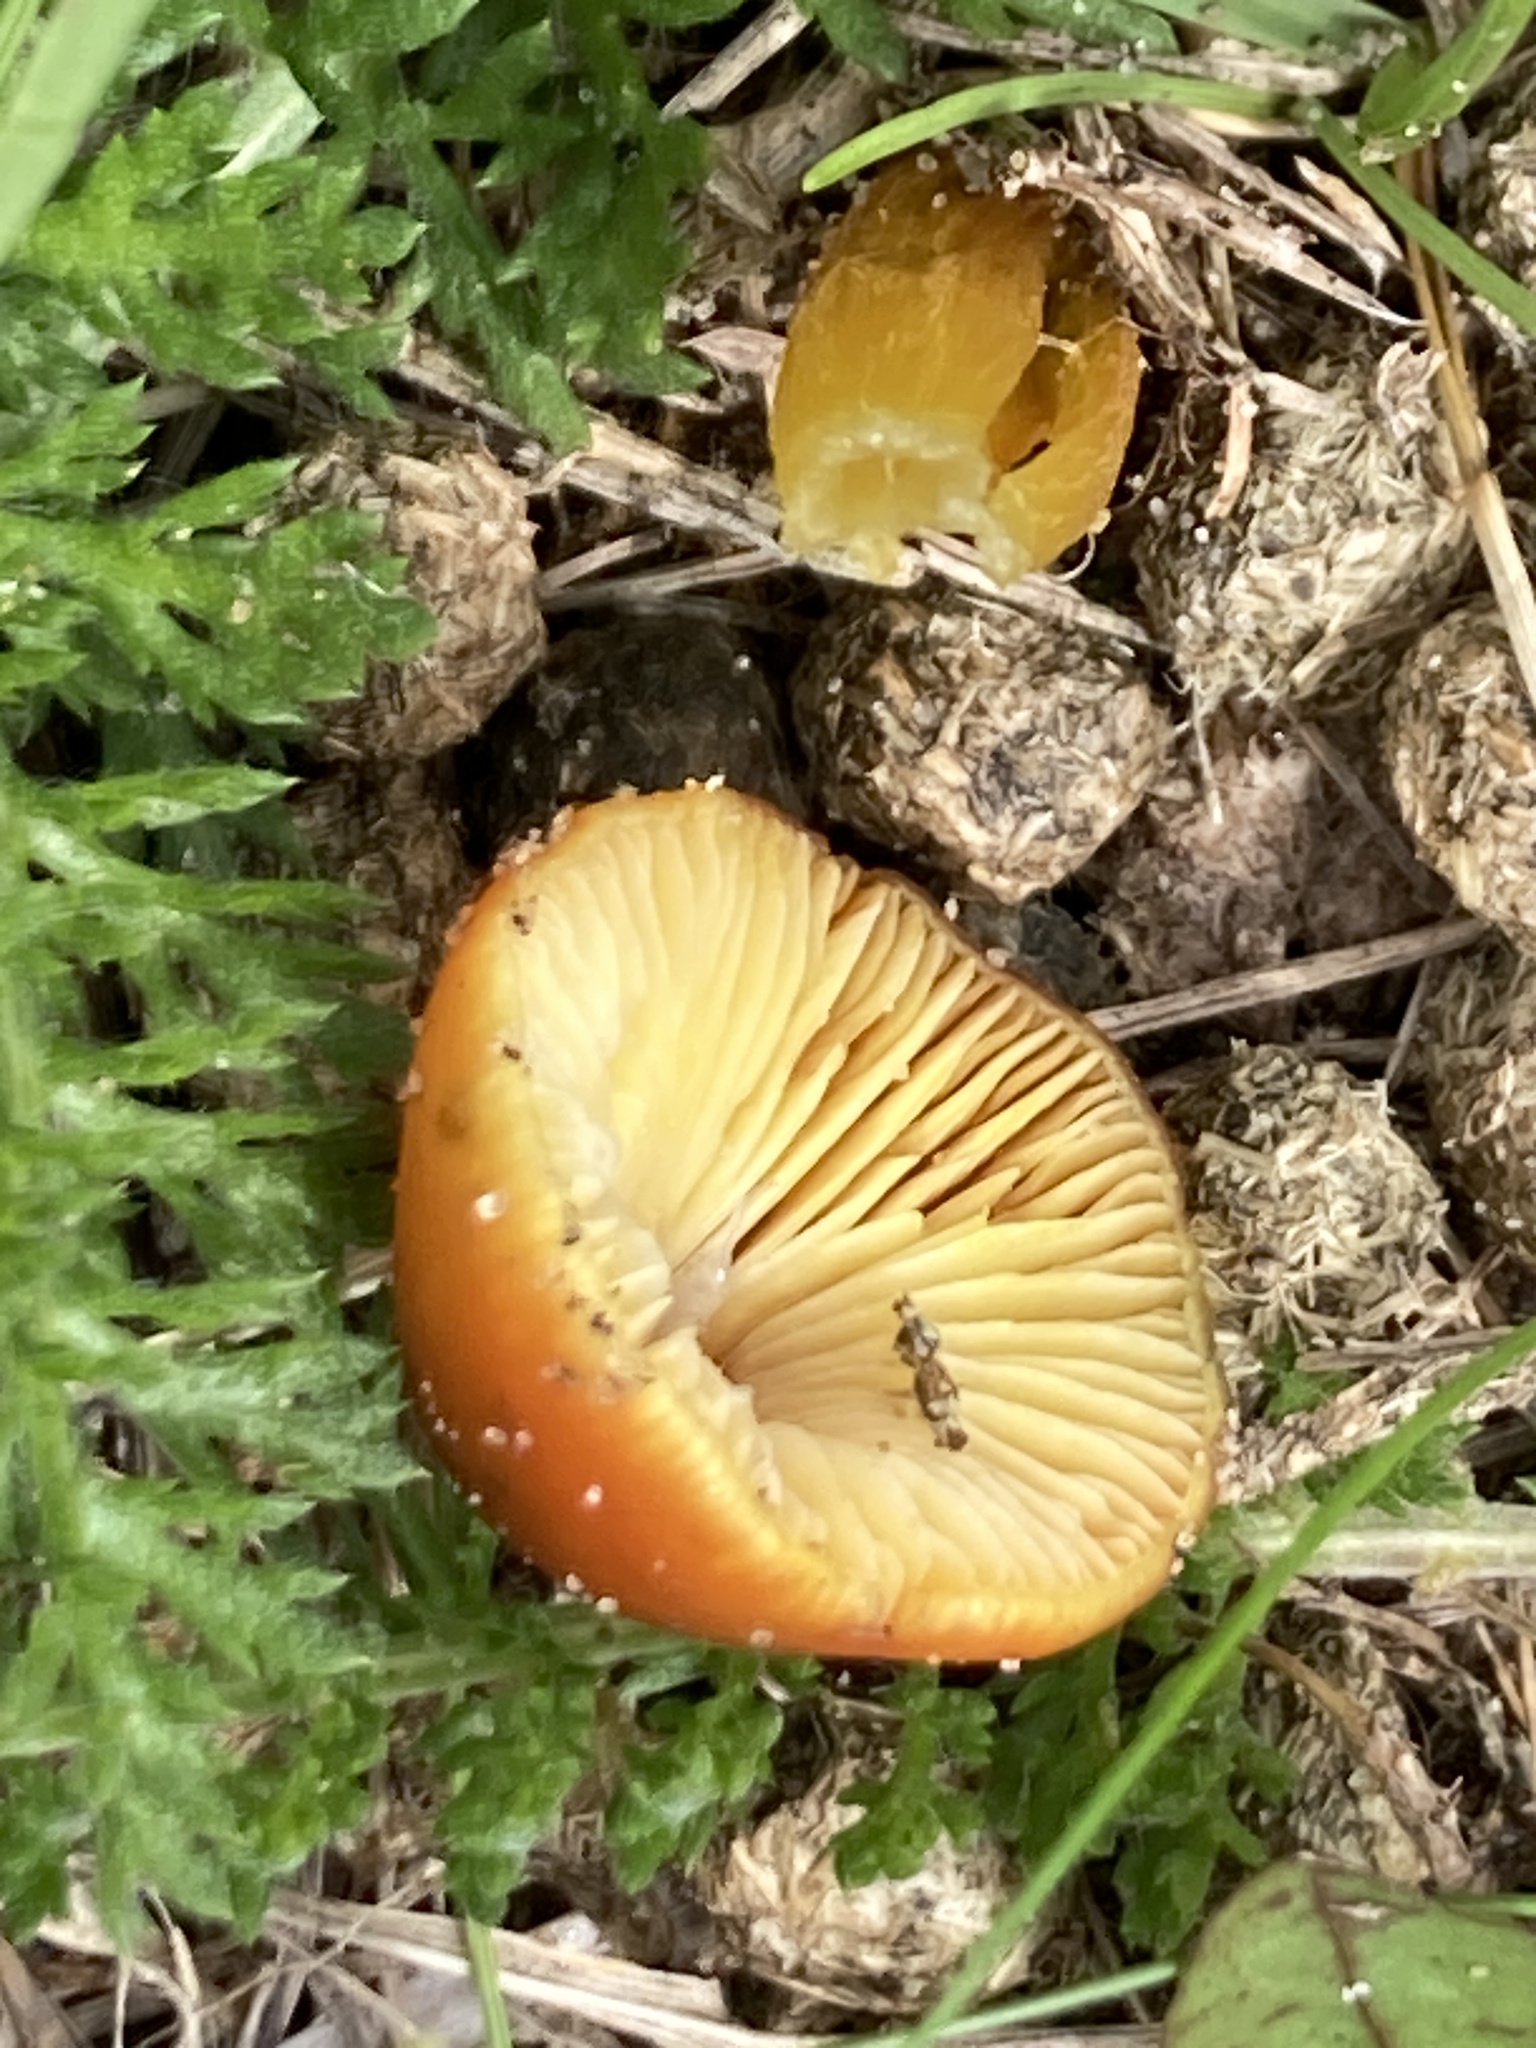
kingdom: Fungi
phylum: Basidiomycota
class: Agaricomycetes
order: Agaricales
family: Hygrophoraceae
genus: Hygrocybe
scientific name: Hygrocybe conica
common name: Blackening wax-cap
